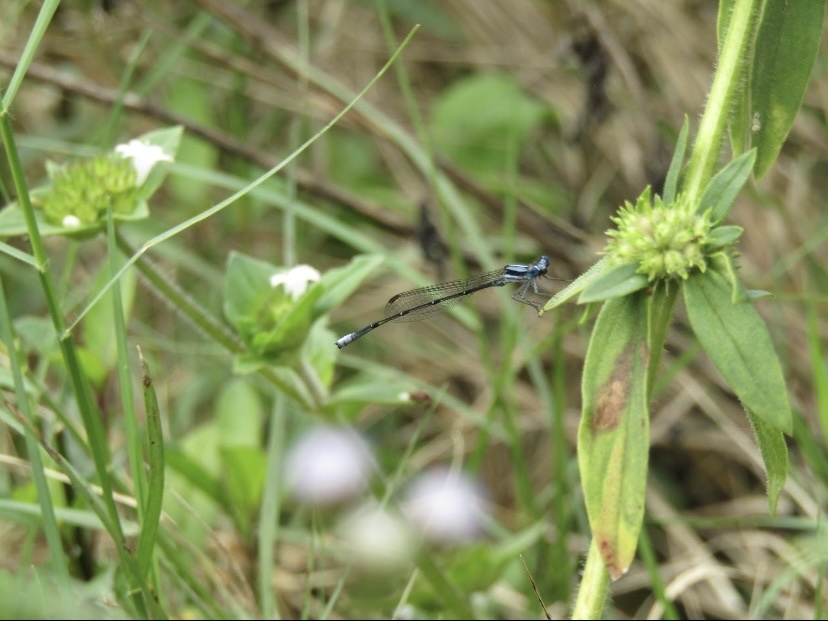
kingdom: Animalia
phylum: Arthropoda
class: Insecta
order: Odonata
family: Platycnemididae
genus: Elattoneura
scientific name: Elattoneura glauca
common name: Common threadtail
